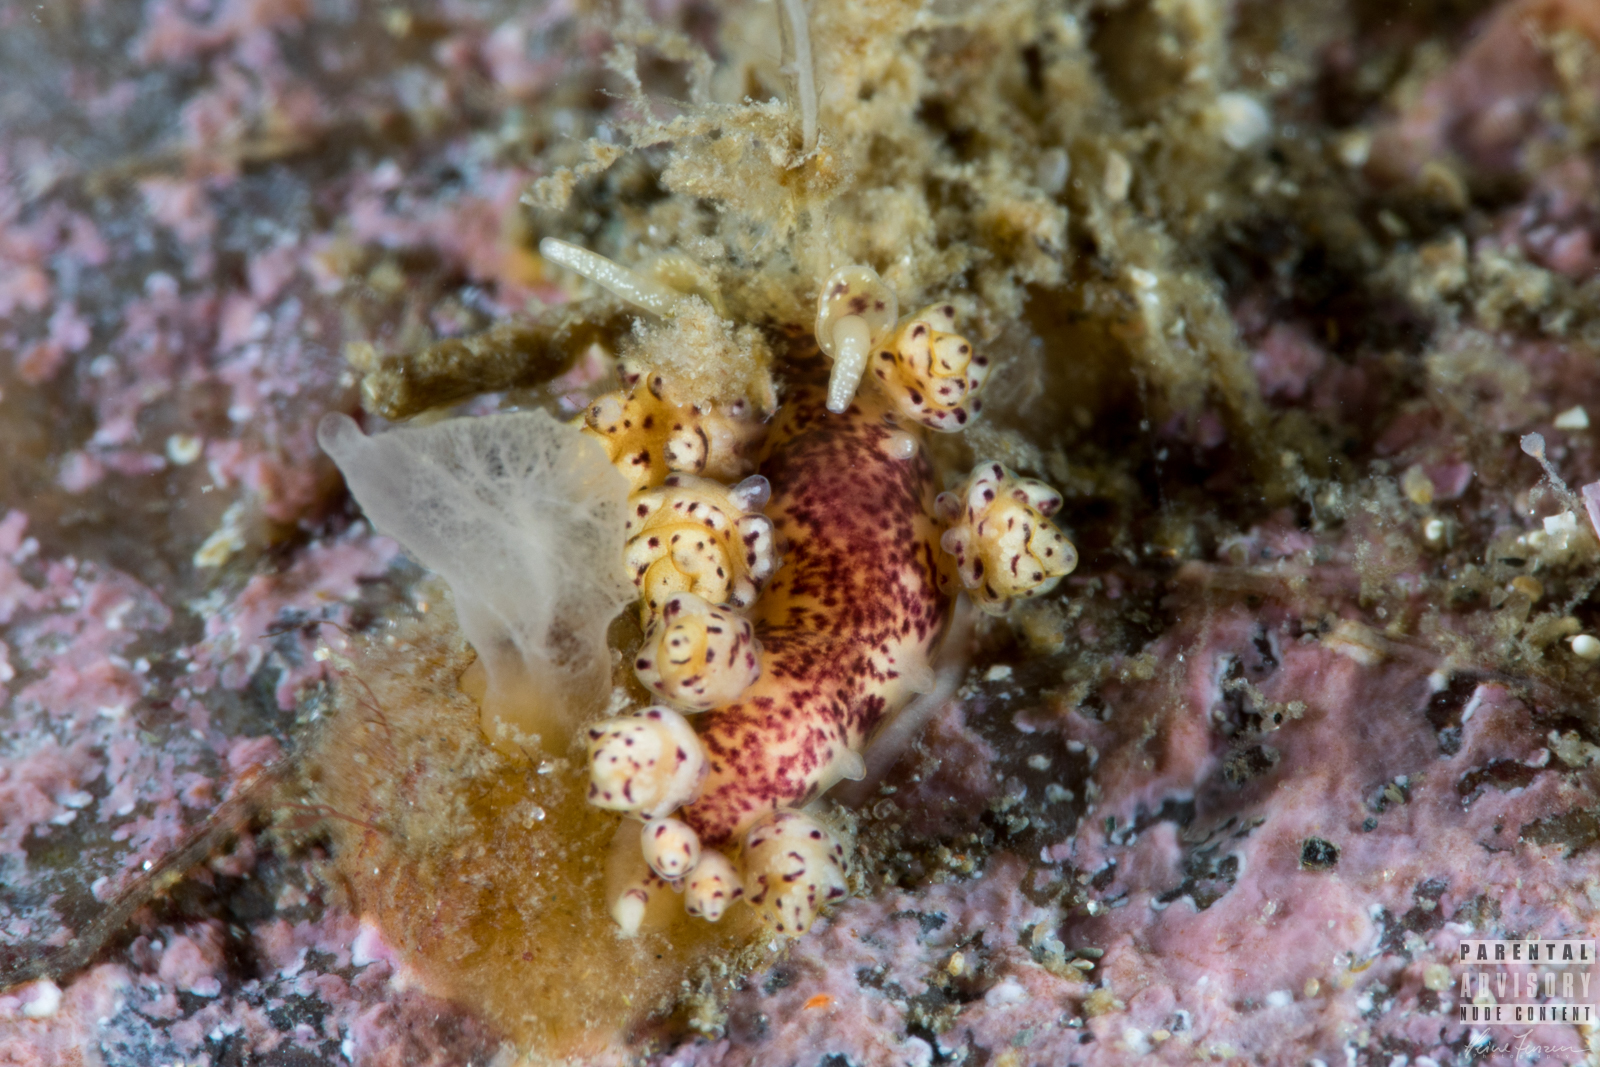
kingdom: Animalia
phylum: Mollusca
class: Gastropoda
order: Nudibranchia
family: Dotidae
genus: Doto
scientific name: Doto dunnei
